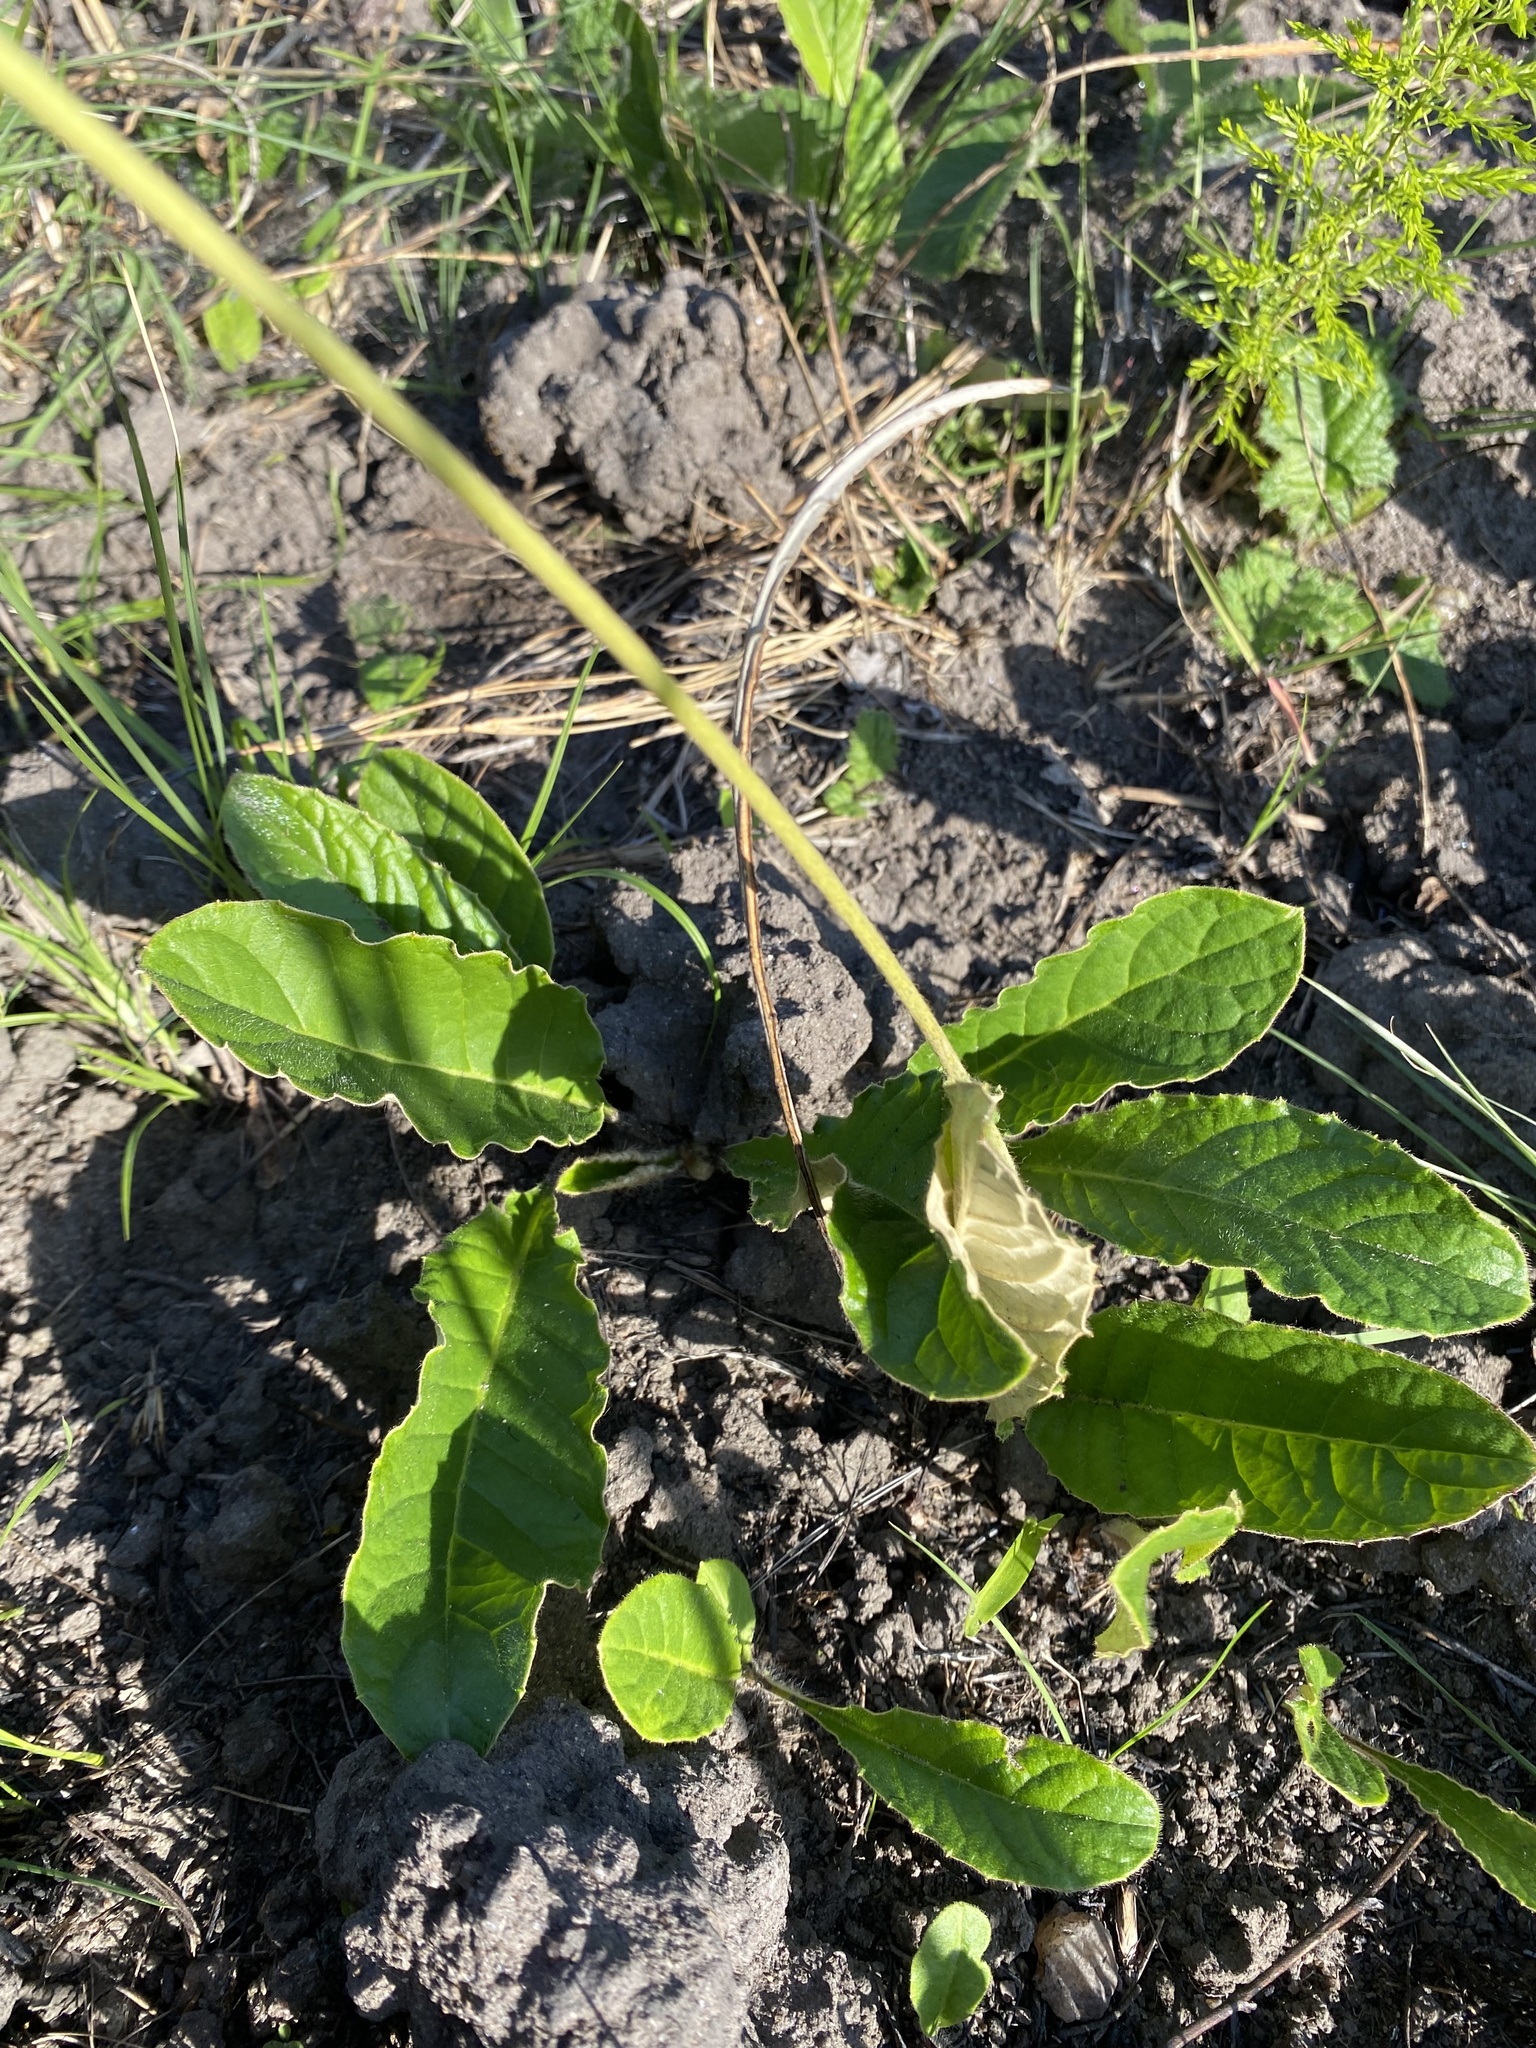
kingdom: Plantae
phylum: Tracheophyta
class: Magnoliopsida
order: Asterales
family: Asteraceae
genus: Gerbera
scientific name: Gerbera ambigua
